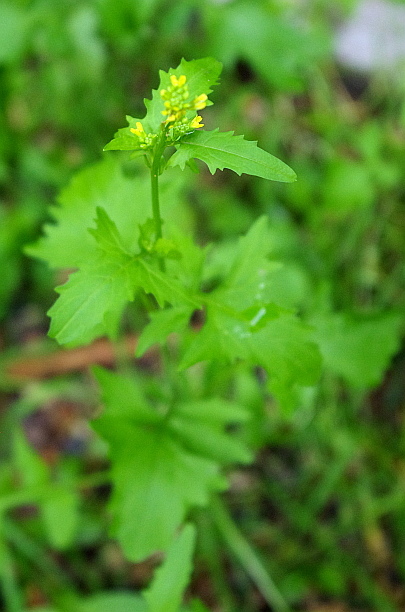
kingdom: Plantae
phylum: Tracheophyta
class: Magnoliopsida
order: Brassicales
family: Brassicaceae
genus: Sisymbrium
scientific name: Sisymbrium officinale
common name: Hedge mustard
